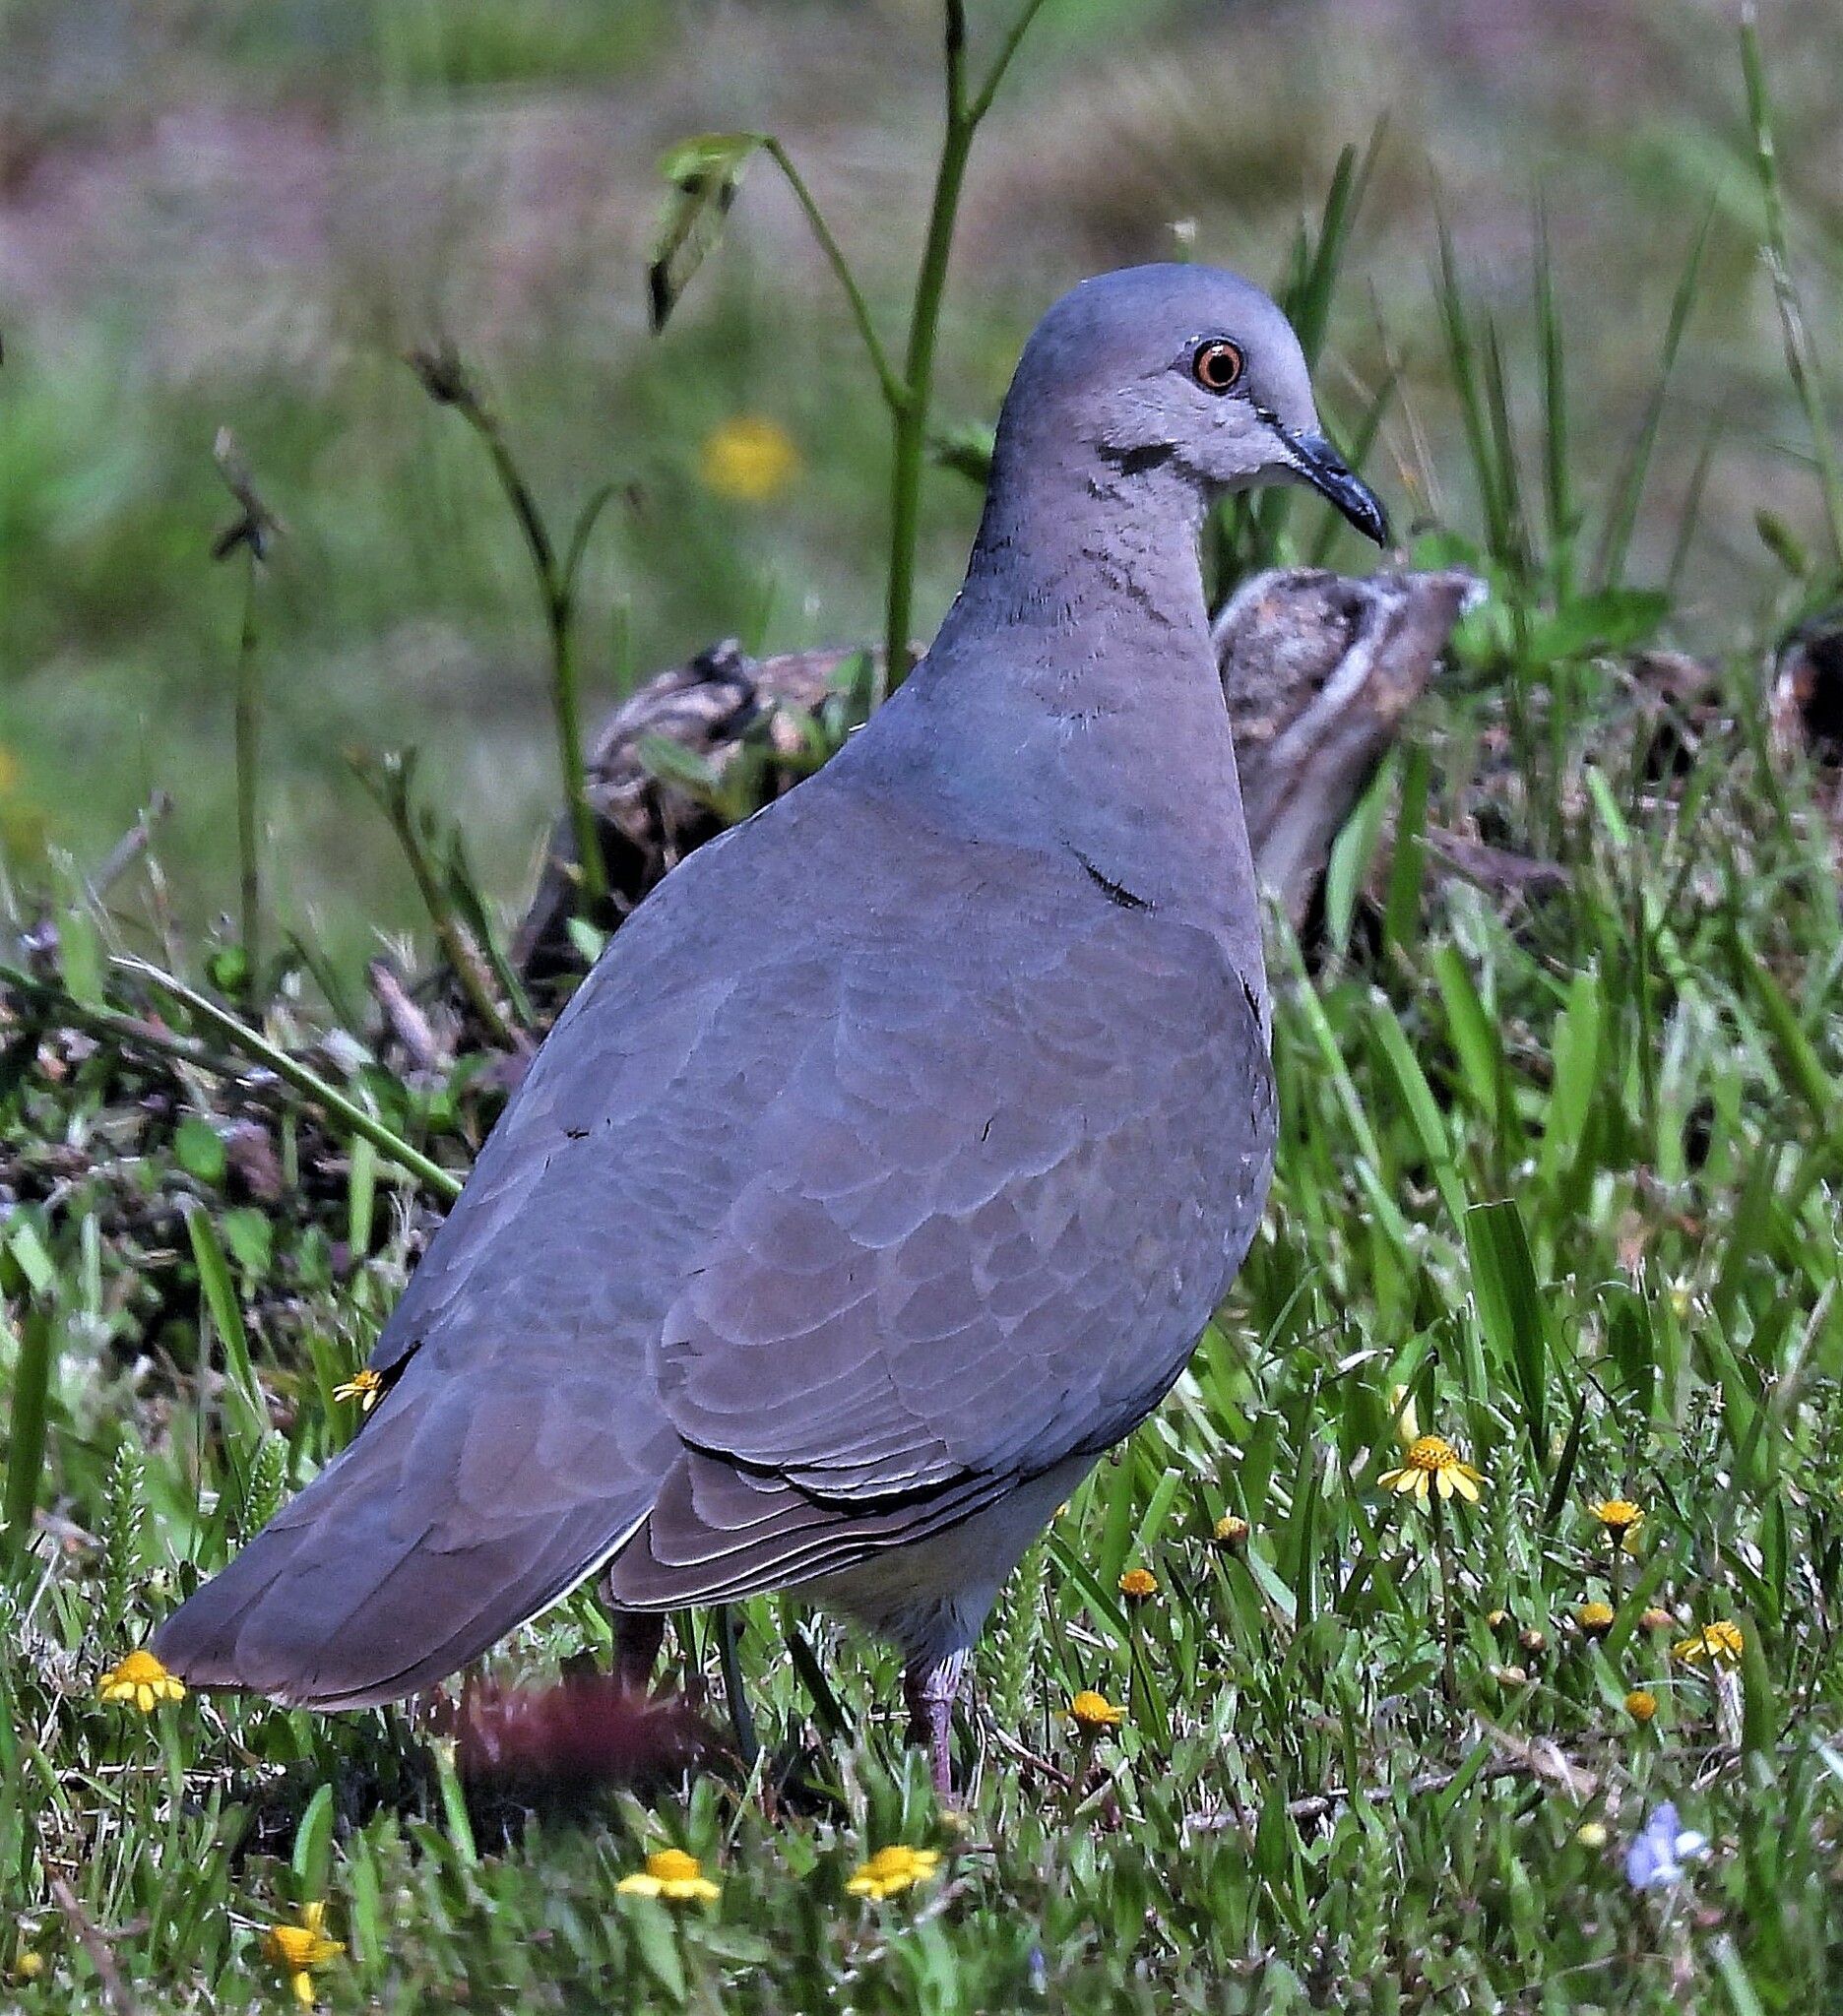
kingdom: Animalia
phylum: Chordata
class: Aves
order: Columbiformes
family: Columbidae
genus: Leptotila
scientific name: Leptotila verreauxi
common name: White-tipped dove
